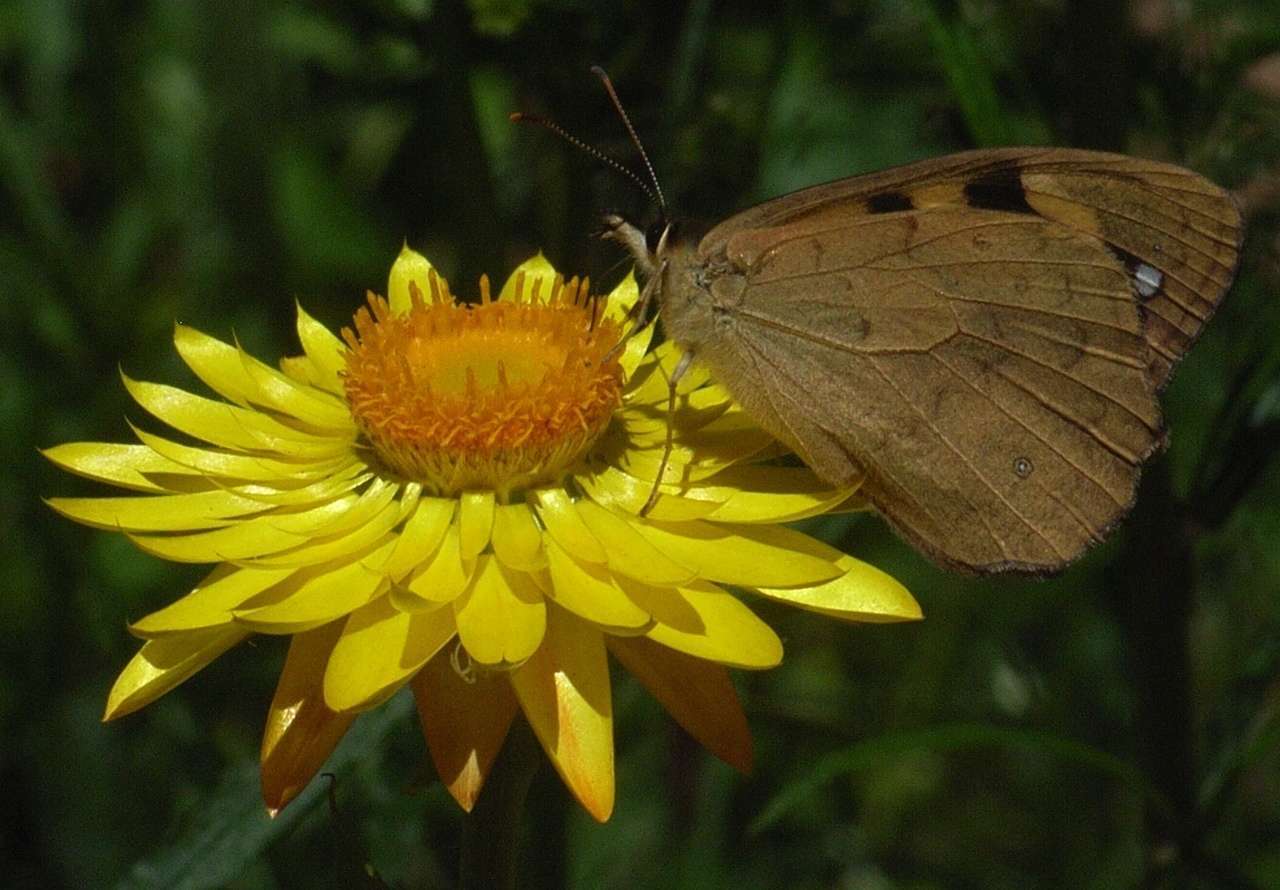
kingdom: Animalia
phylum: Arthropoda
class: Insecta
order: Lepidoptera
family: Nymphalidae
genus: Heteronympha
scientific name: Heteronympha solandri
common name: Solander's brown
